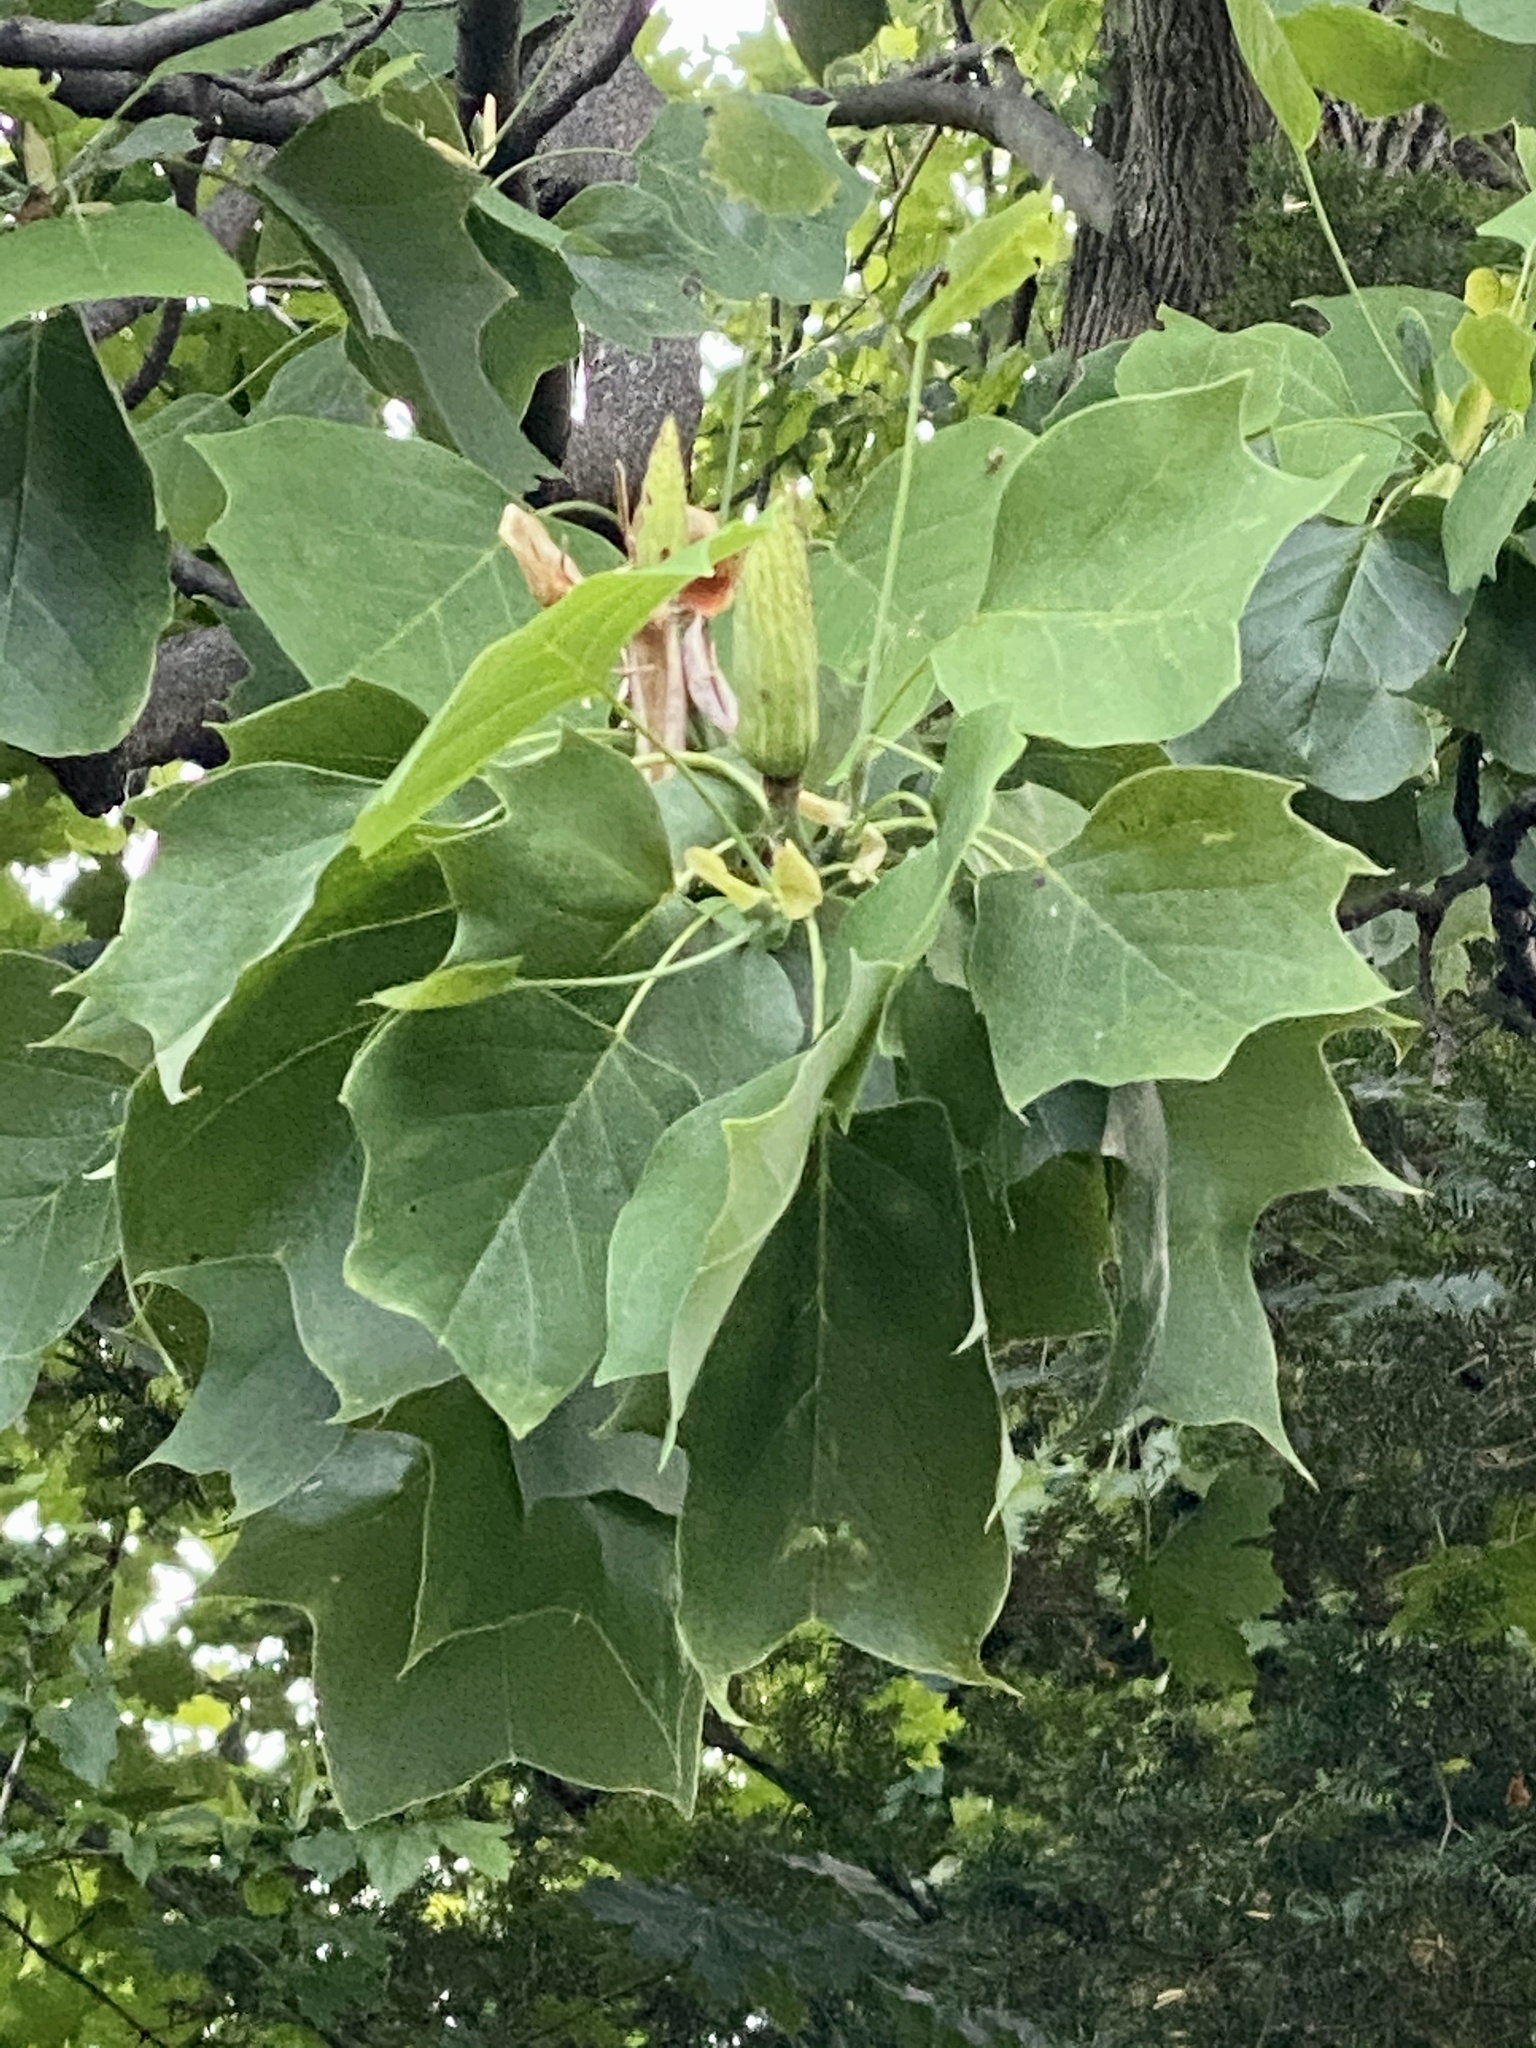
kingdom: Plantae
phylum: Tracheophyta
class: Magnoliopsida
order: Magnoliales
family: Magnoliaceae
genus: Liriodendron
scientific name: Liriodendron tulipifera
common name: Tulip tree
